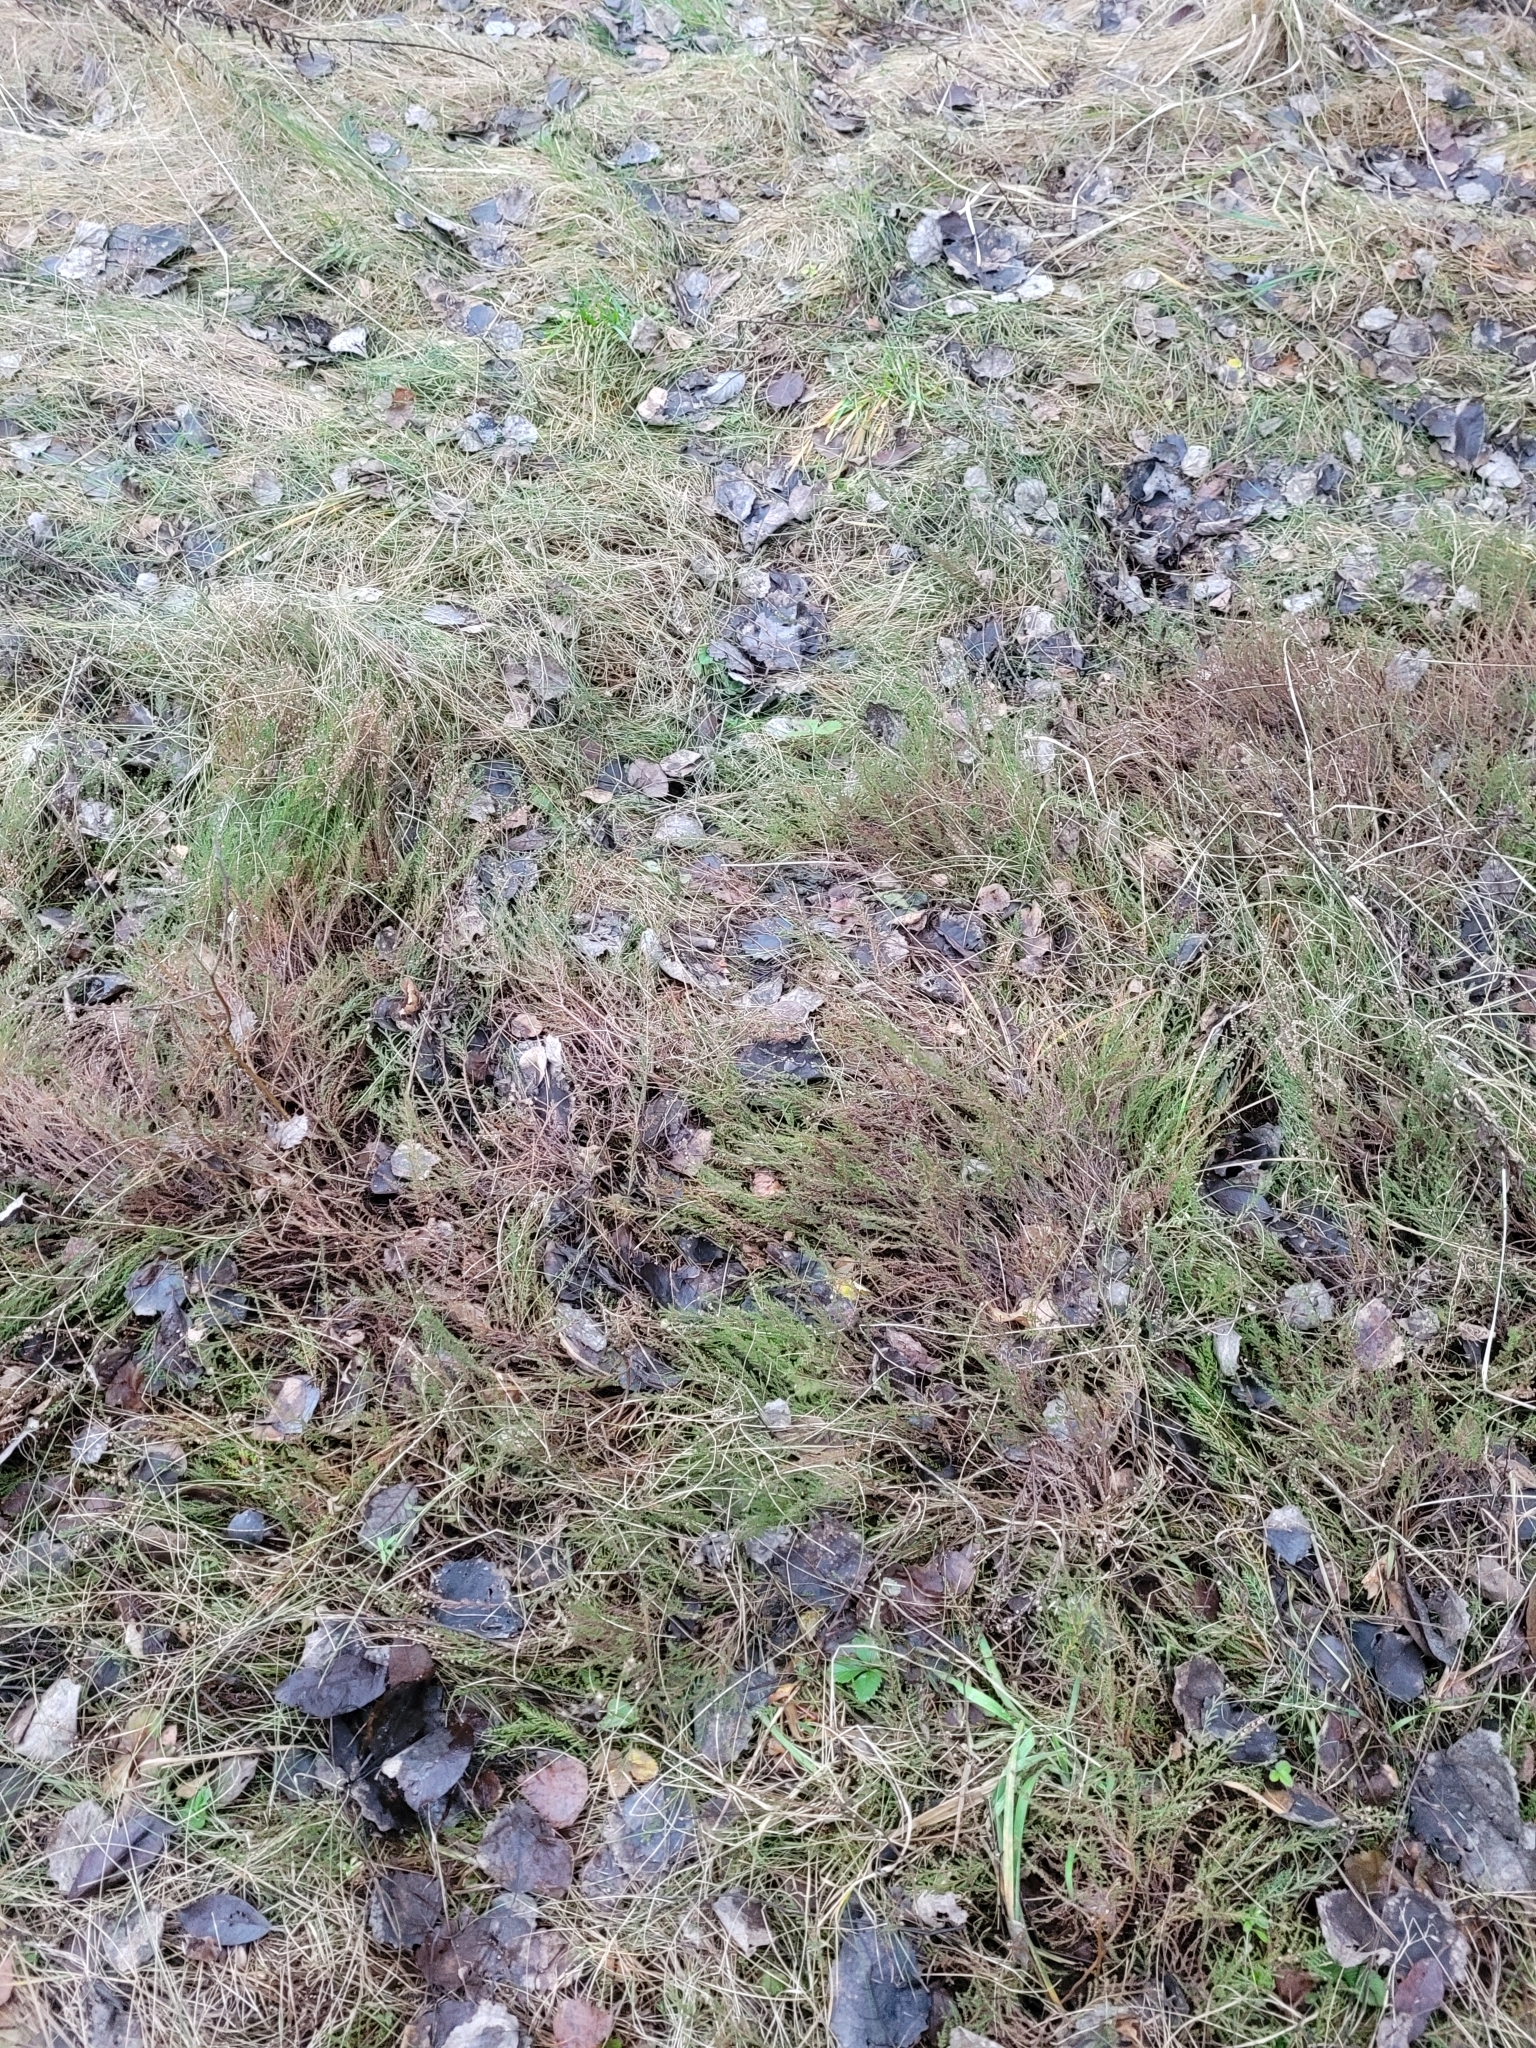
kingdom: Plantae
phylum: Tracheophyta
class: Magnoliopsida
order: Ericales
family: Ericaceae
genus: Calluna
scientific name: Calluna vulgaris
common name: Heather
